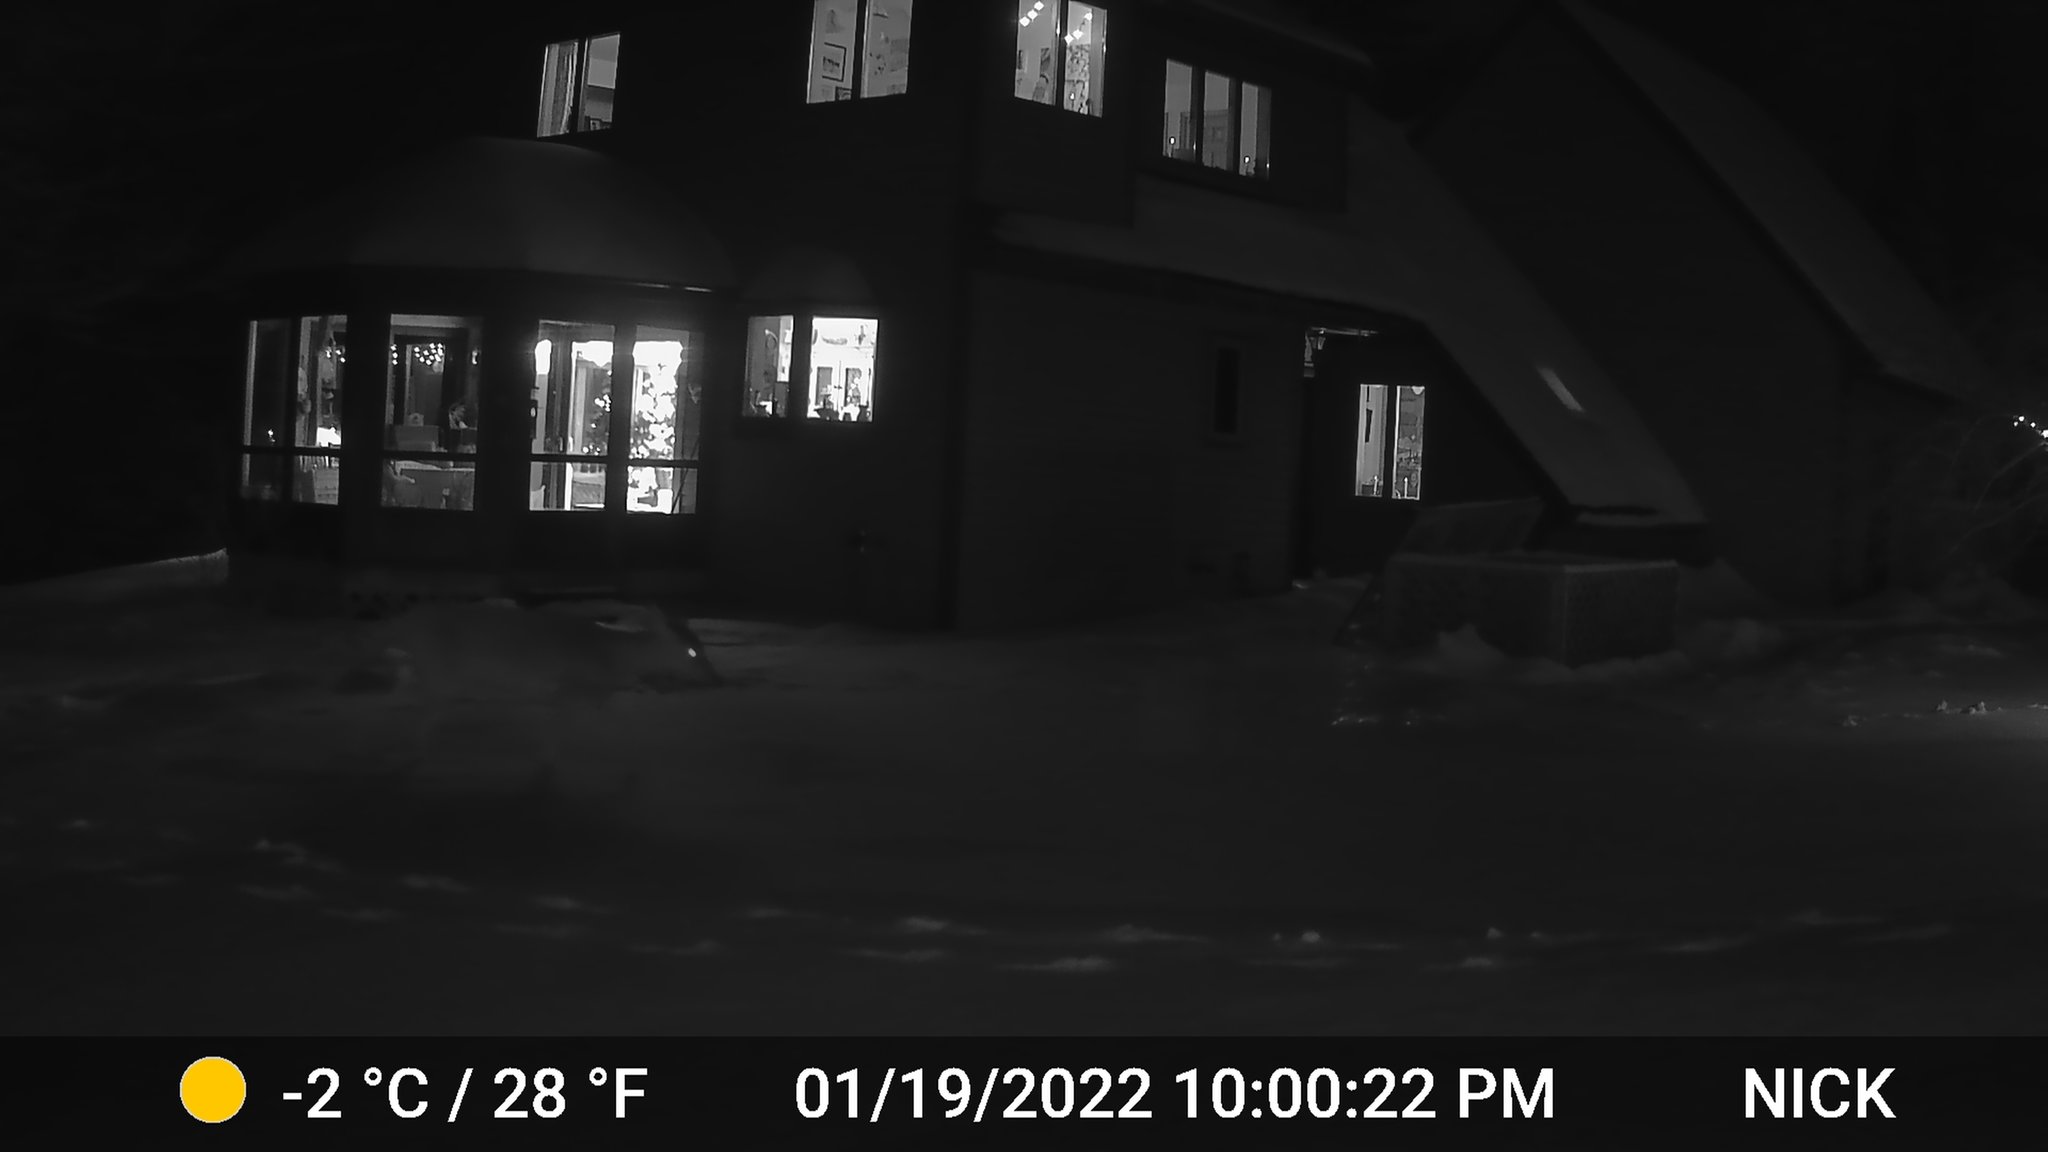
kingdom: Animalia
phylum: Chordata
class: Mammalia
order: Artiodactyla
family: Cervidae
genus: Odocoileus
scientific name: Odocoileus virginianus
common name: White-tailed deer
